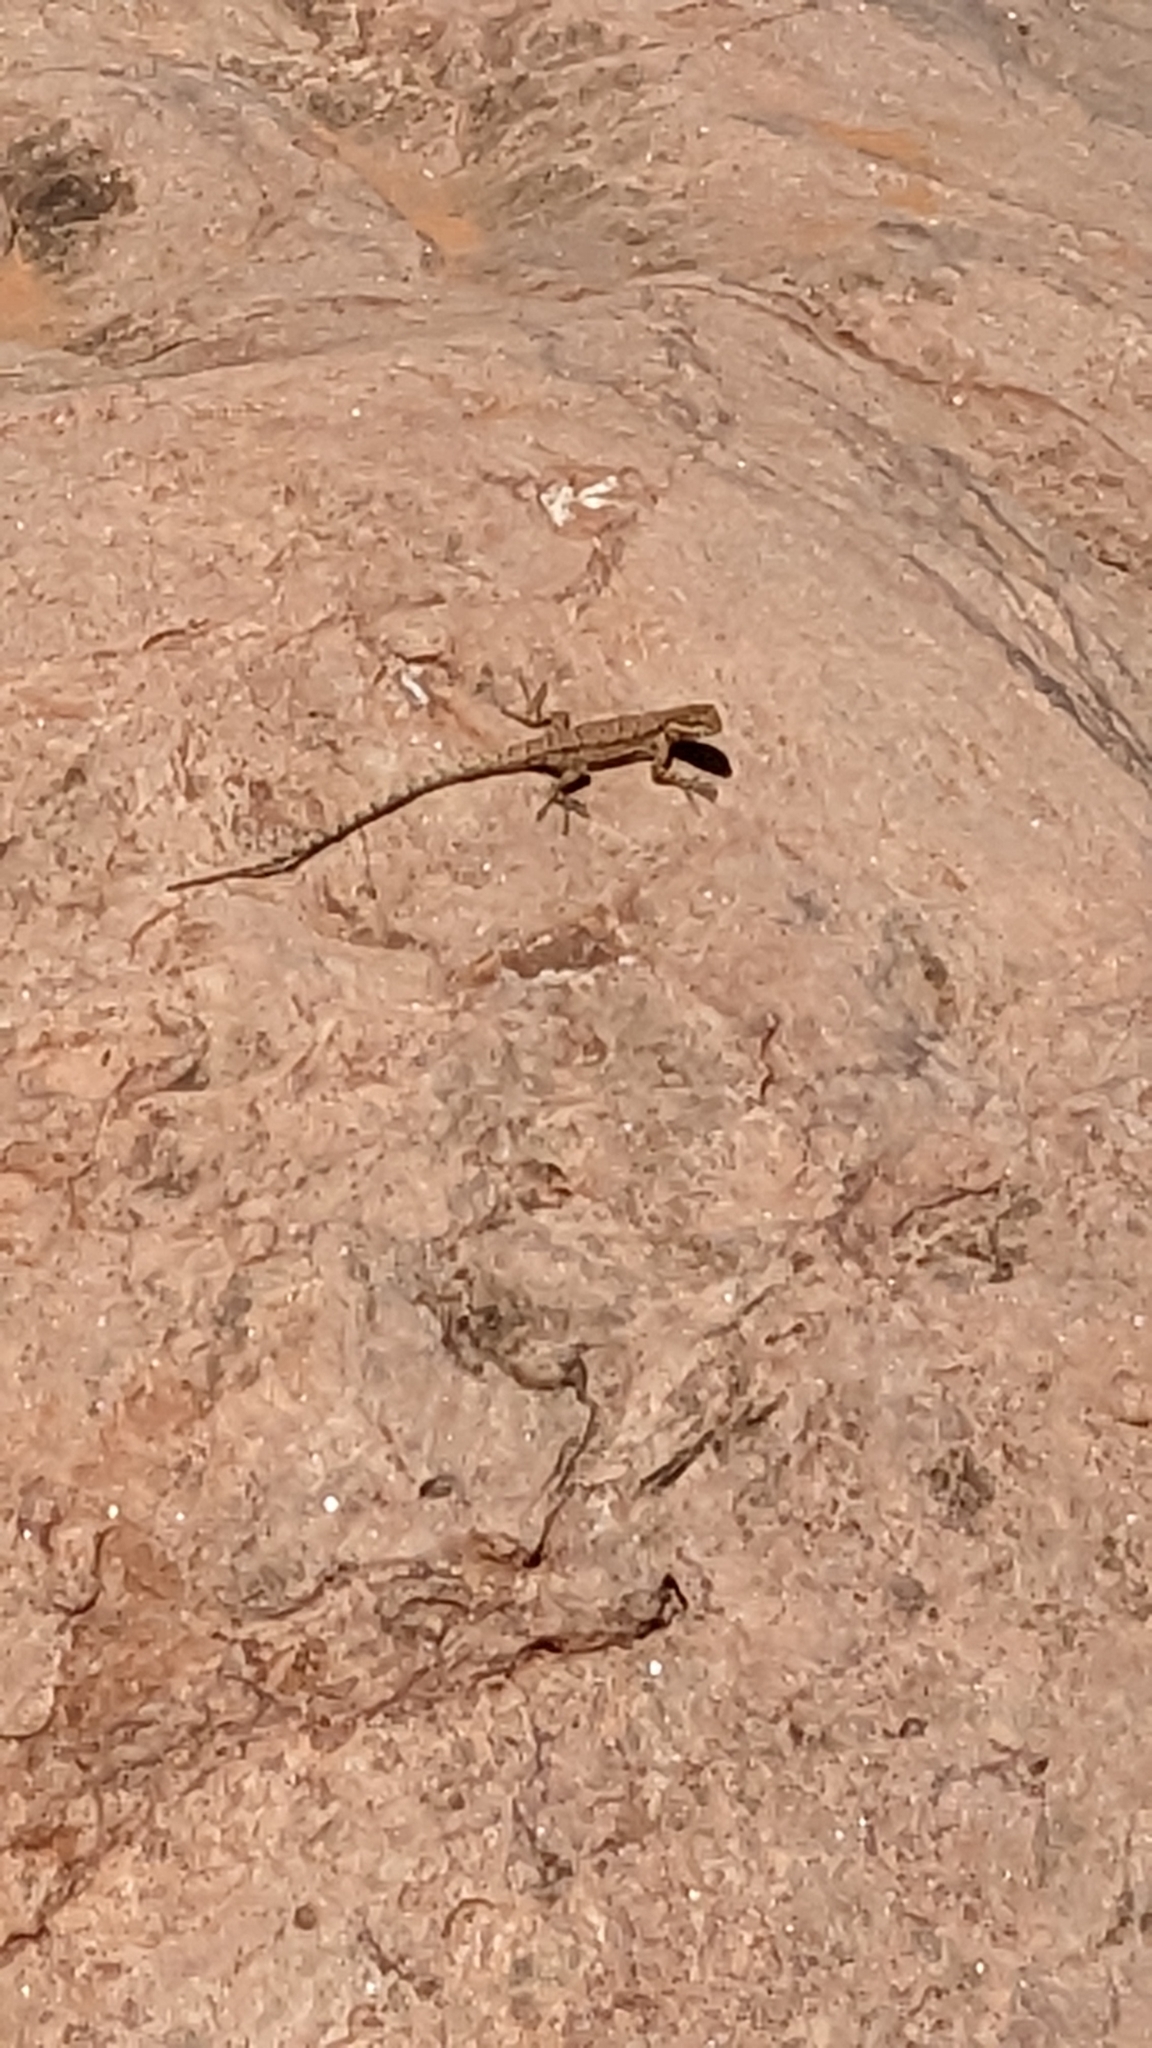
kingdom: Animalia
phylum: Chordata
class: Squamata
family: Phrynosomatidae
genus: Urosaurus
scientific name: Urosaurus ornatus
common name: Ornate tree lizard
